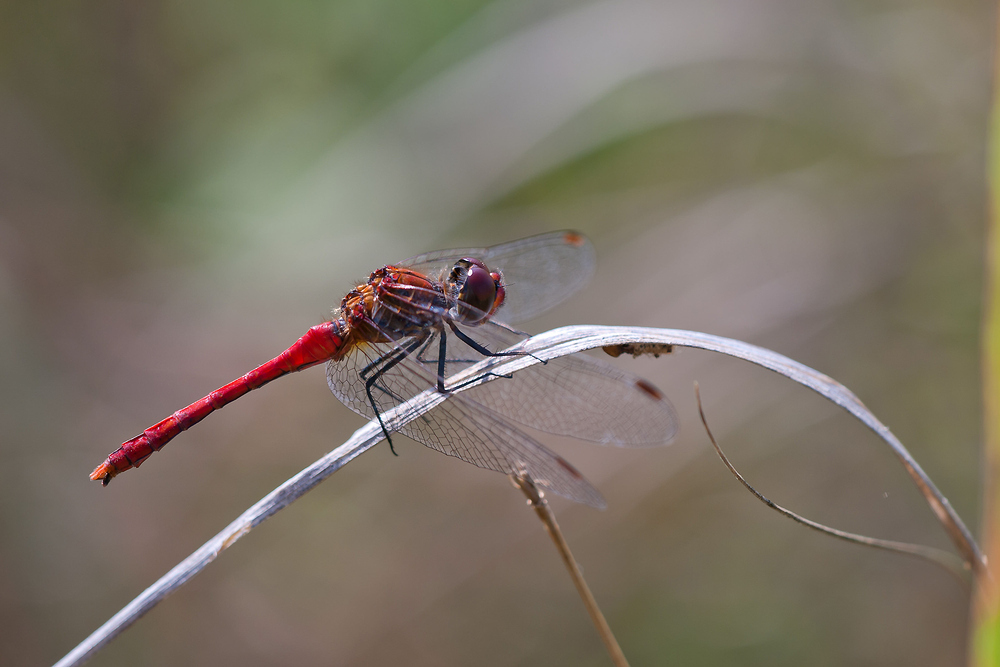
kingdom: Animalia
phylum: Arthropoda
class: Insecta
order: Odonata
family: Libellulidae
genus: Sympetrum
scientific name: Sympetrum sanguineum
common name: Ruddy darter
